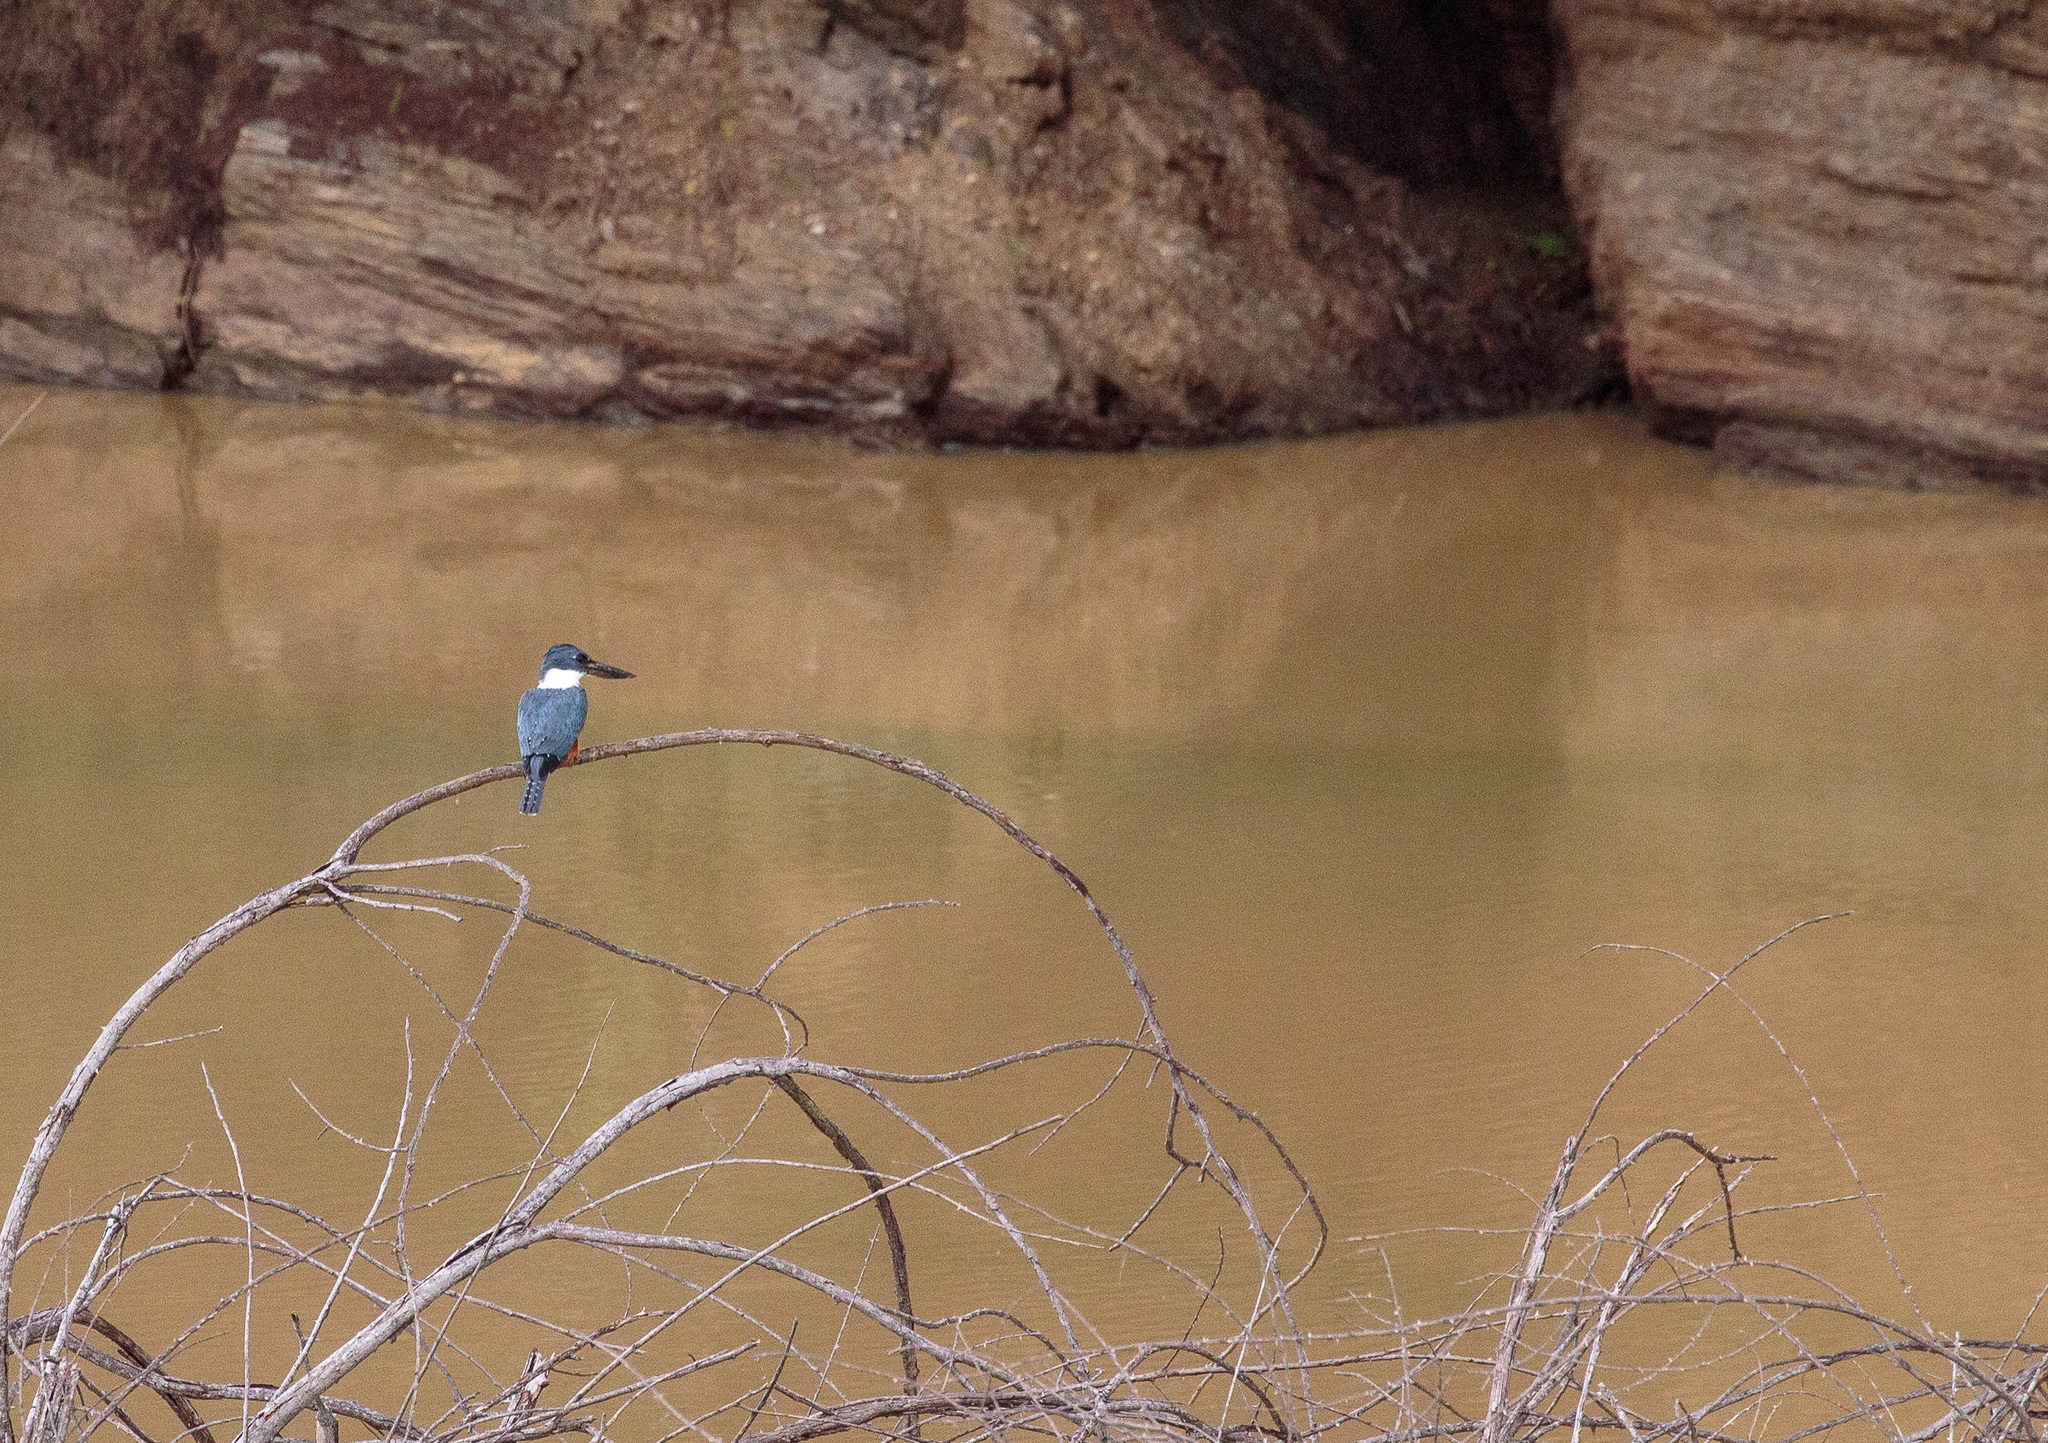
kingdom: Animalia
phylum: Chordata
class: Aves
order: Coraciiformes
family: Alcedinidae
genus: Megaceryle
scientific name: Megaceryle torquata
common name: Ringed kingfisher
